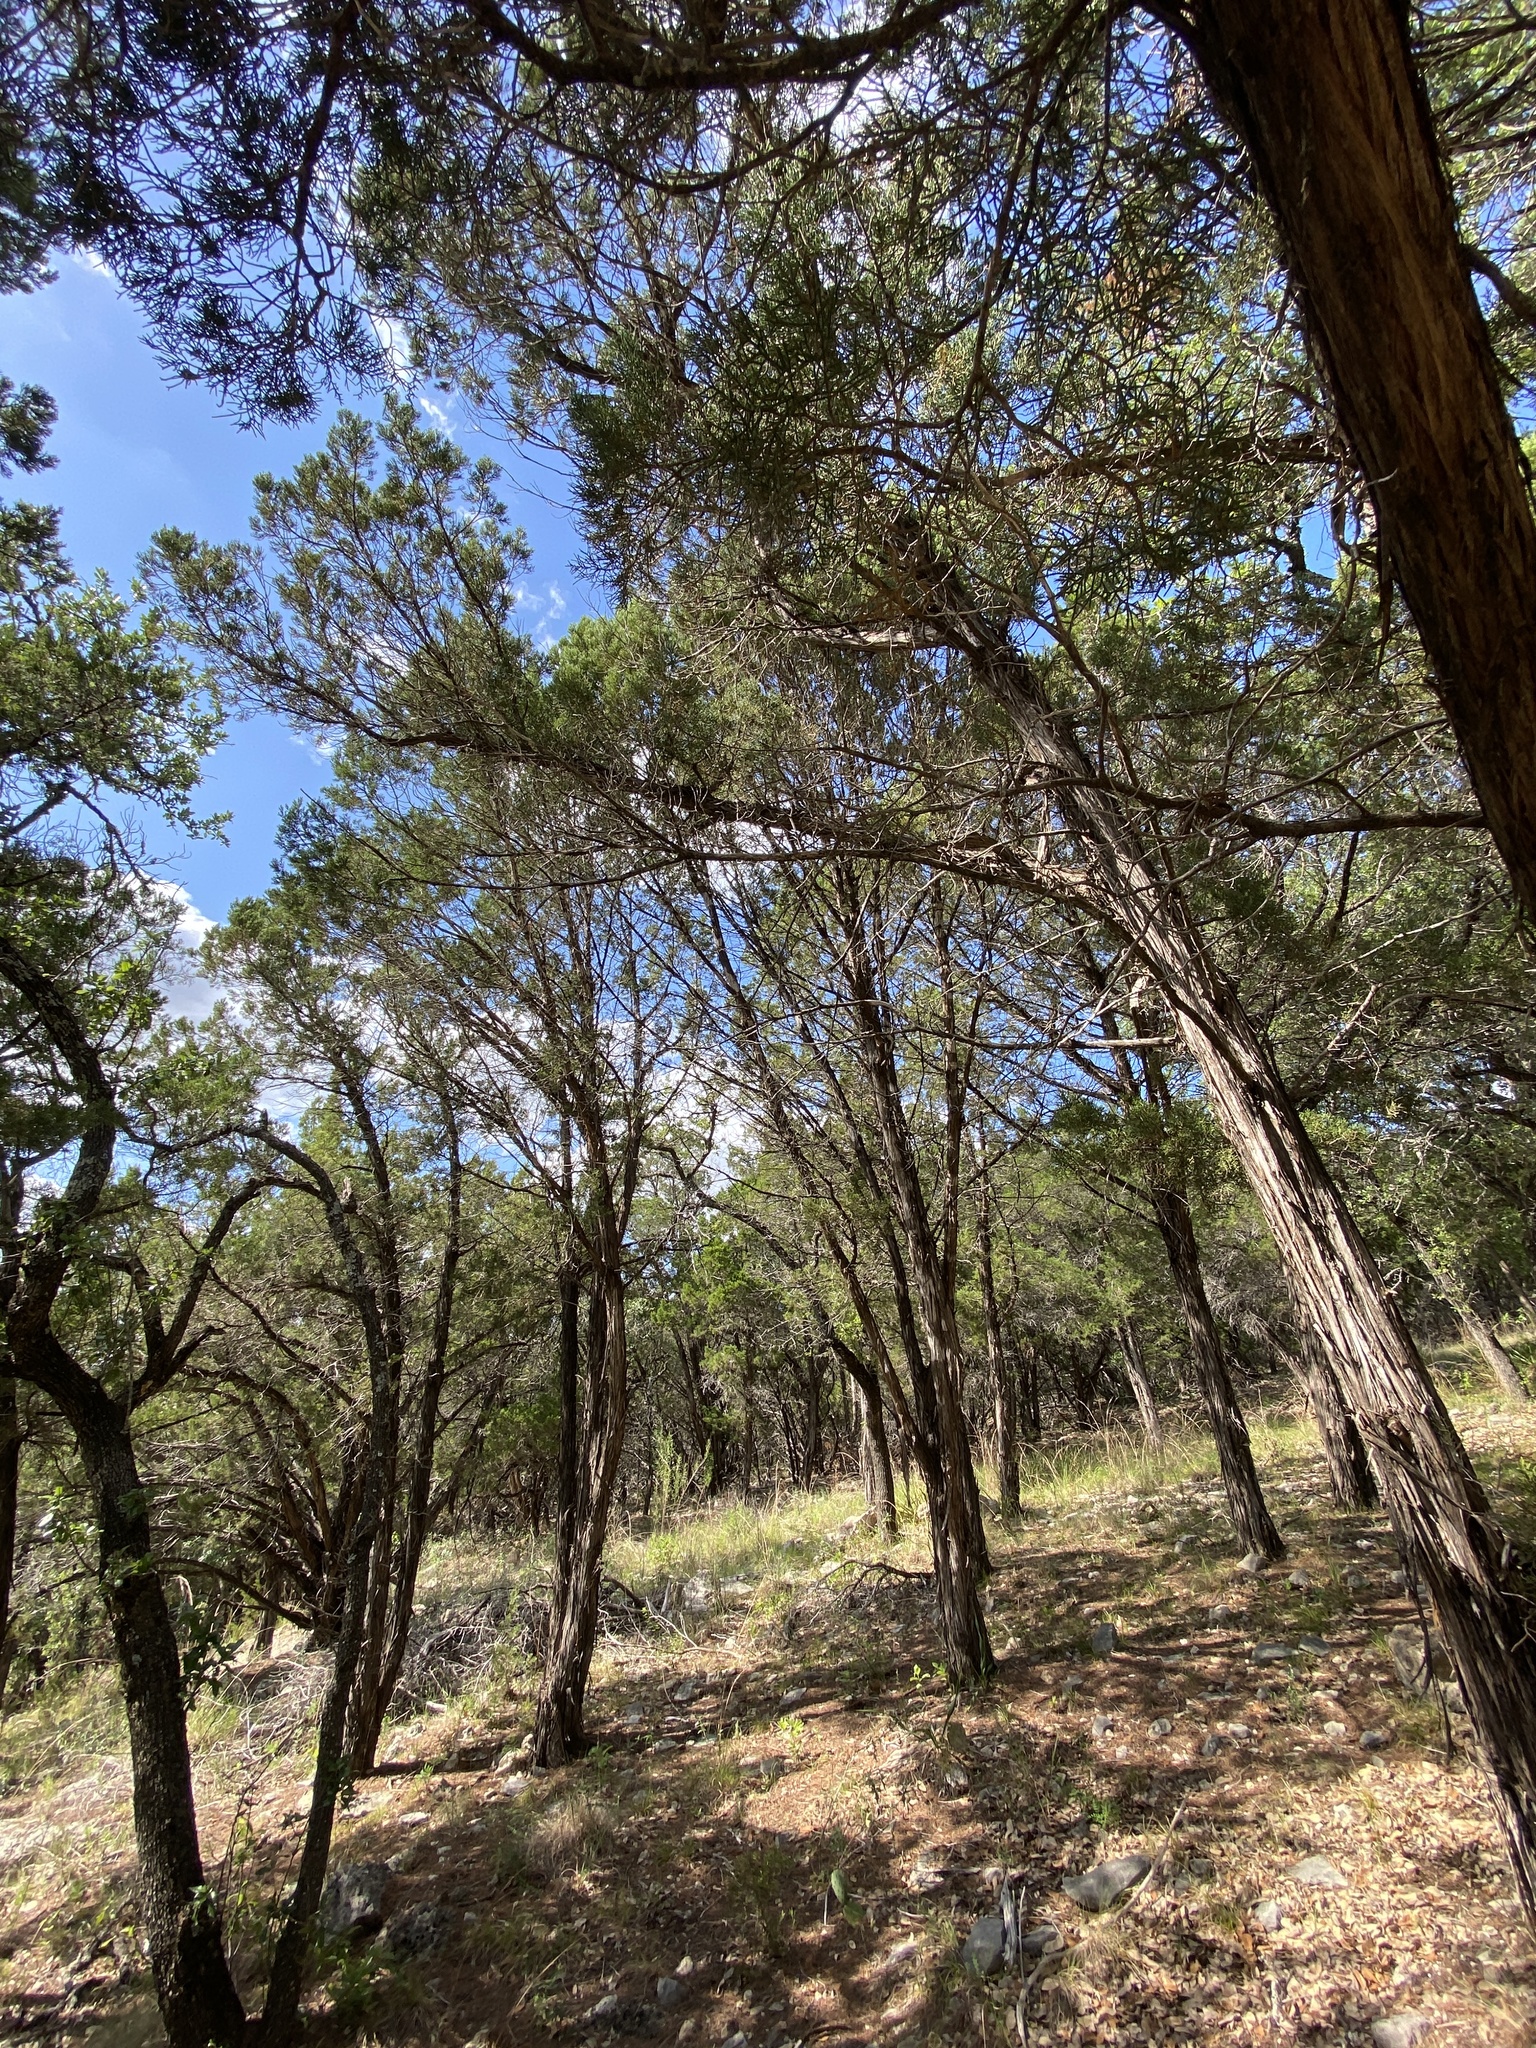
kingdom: Plantae
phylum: Tracheophyta
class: Pinopsida
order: Pinales
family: Cupressaceae
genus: Juniperus
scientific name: Juniperus ashei
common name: Mexican juniper
